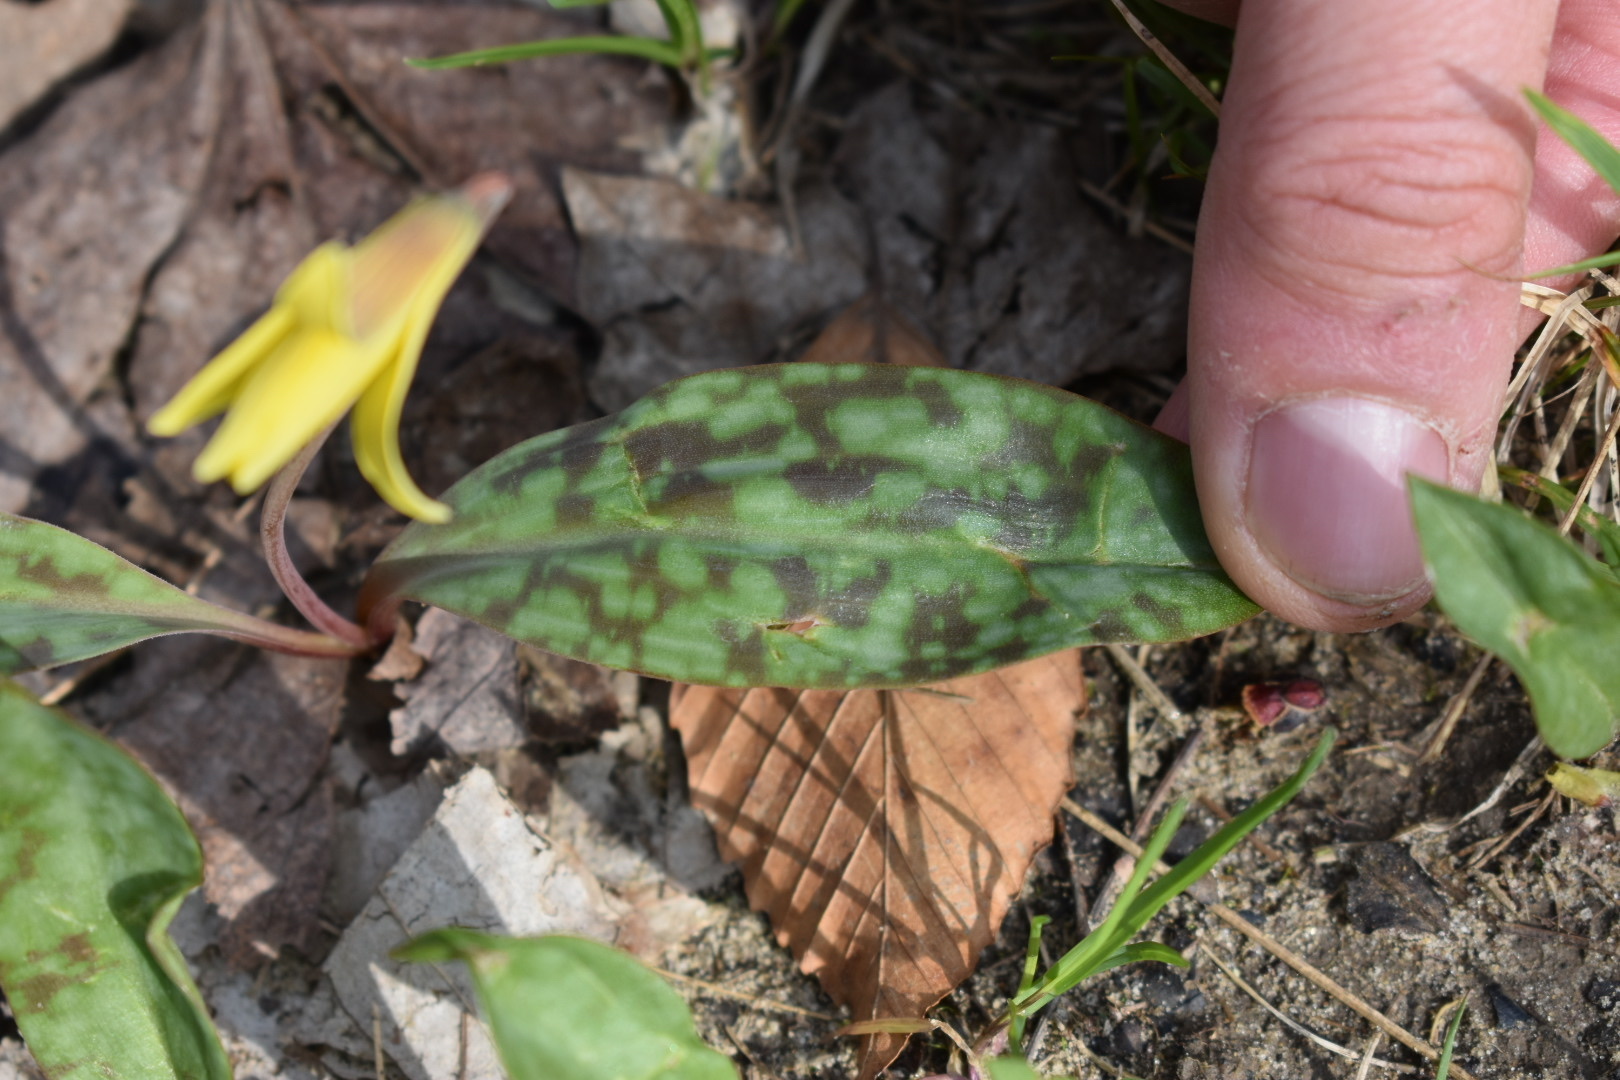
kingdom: Plantae
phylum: Tracheophyta
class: Liliopsida
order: Liliales
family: Liliaceae
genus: Erythronium
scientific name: Erythronium americanum
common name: Yellow adder's-tongue
